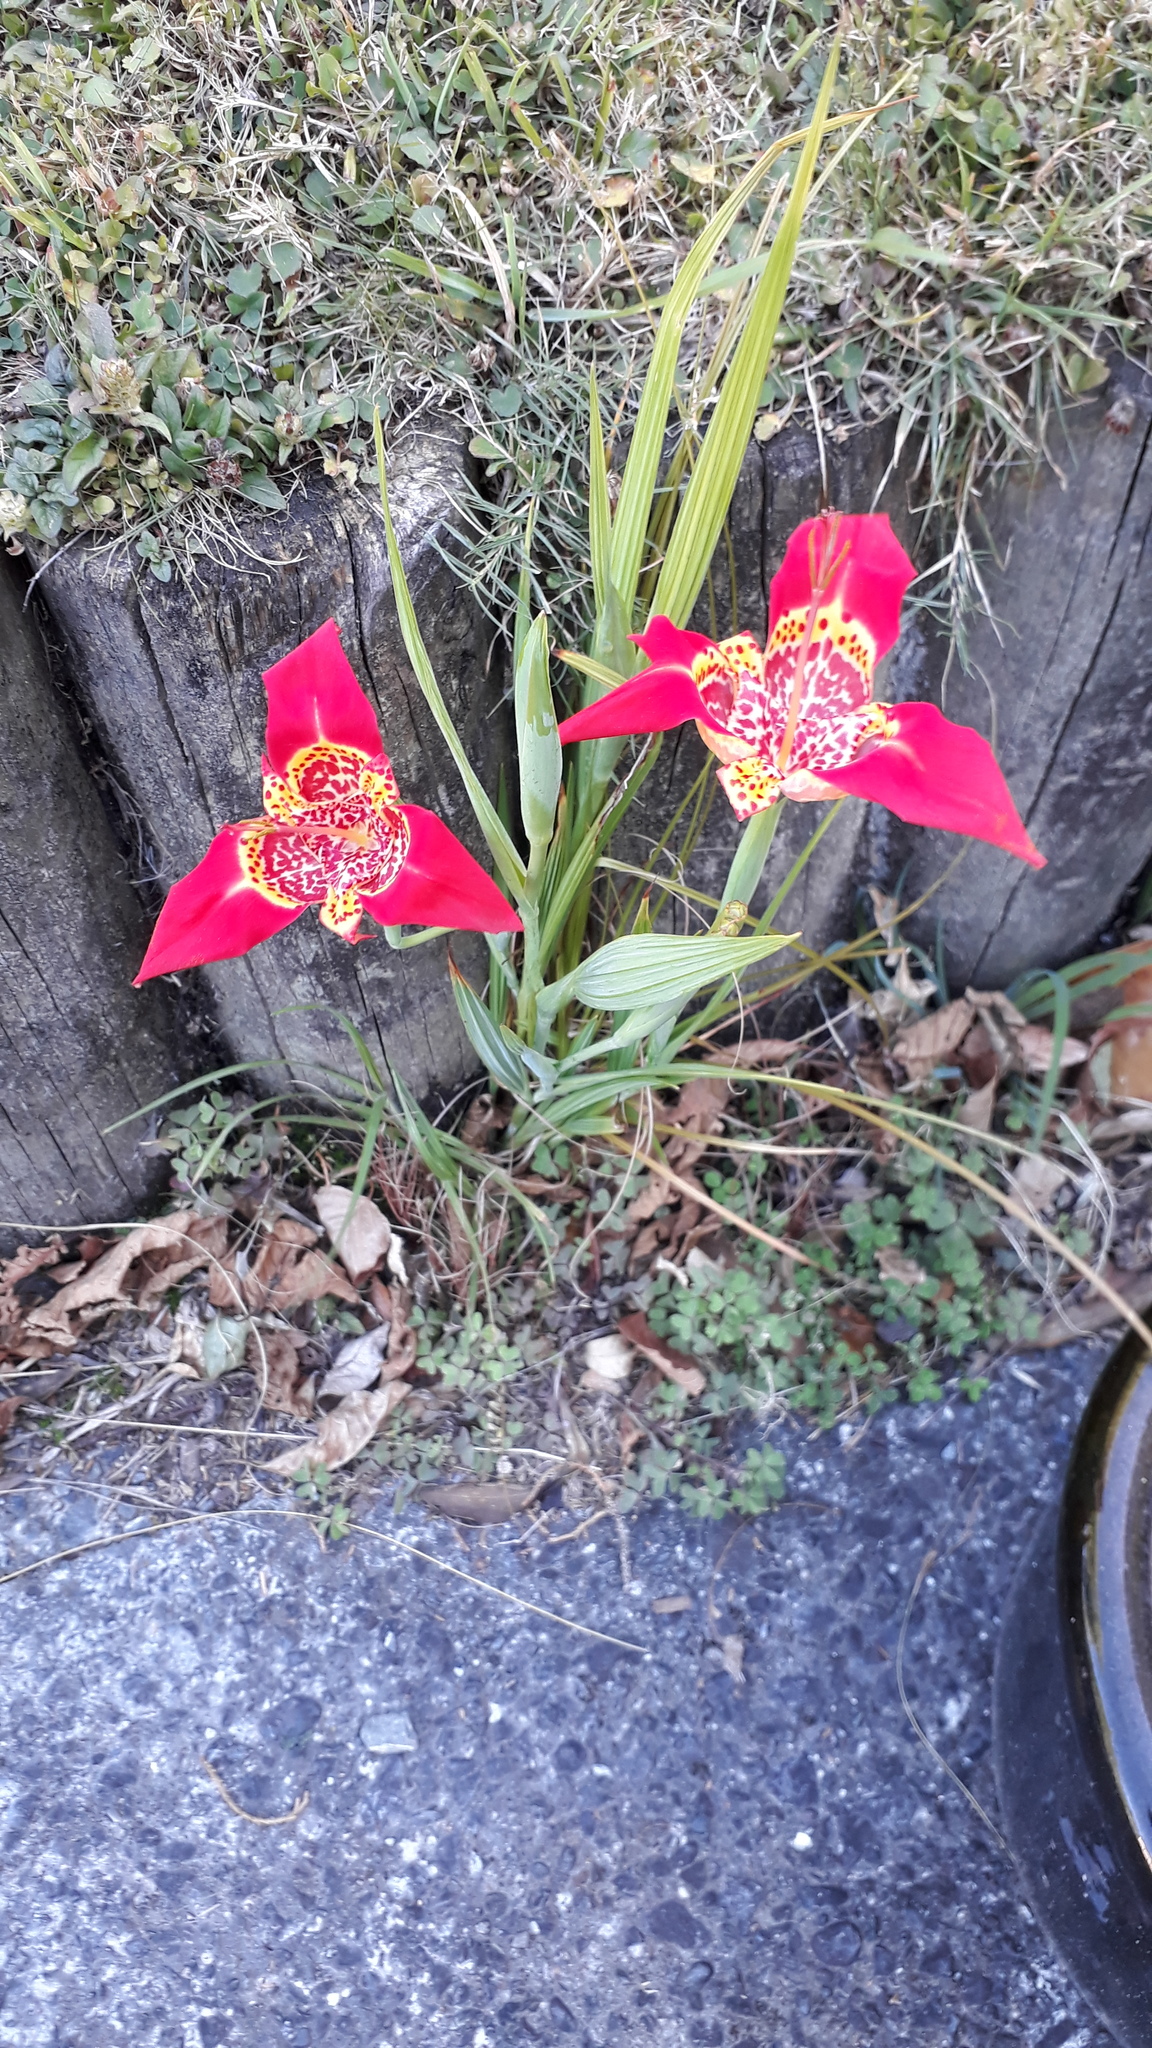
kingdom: Plantae
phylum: Tracheophyta
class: Liliopsida
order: Asparagales
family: Iridaceae
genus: Tigridia
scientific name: Tigridia pavonia
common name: Peacock-flower
